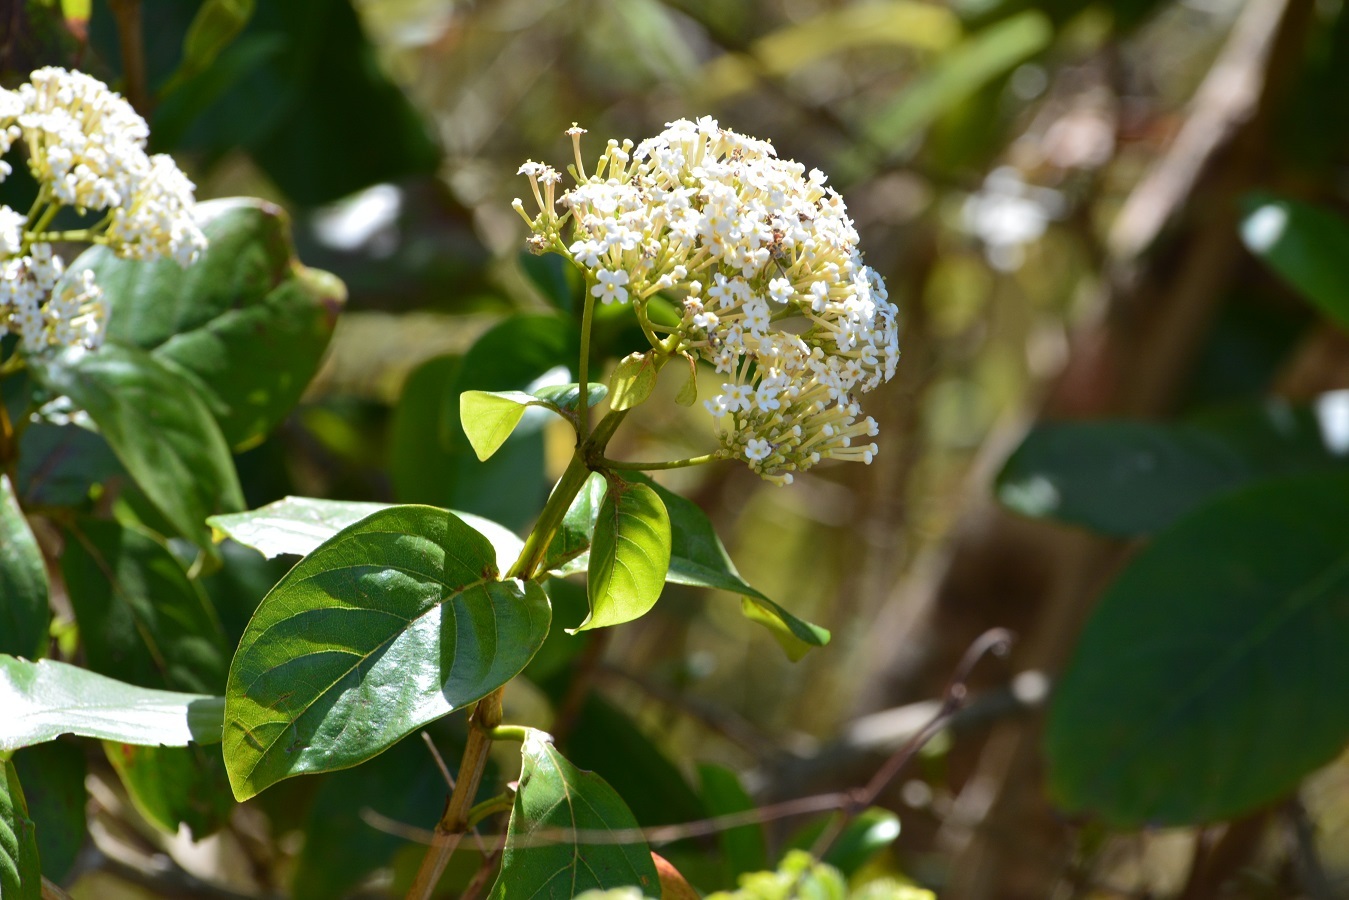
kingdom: Plantae
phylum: Tracheophyta
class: Magnoliopsida
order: Gentianales
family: Rubiaceae
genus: Rogiera
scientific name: Rogiera amoena
